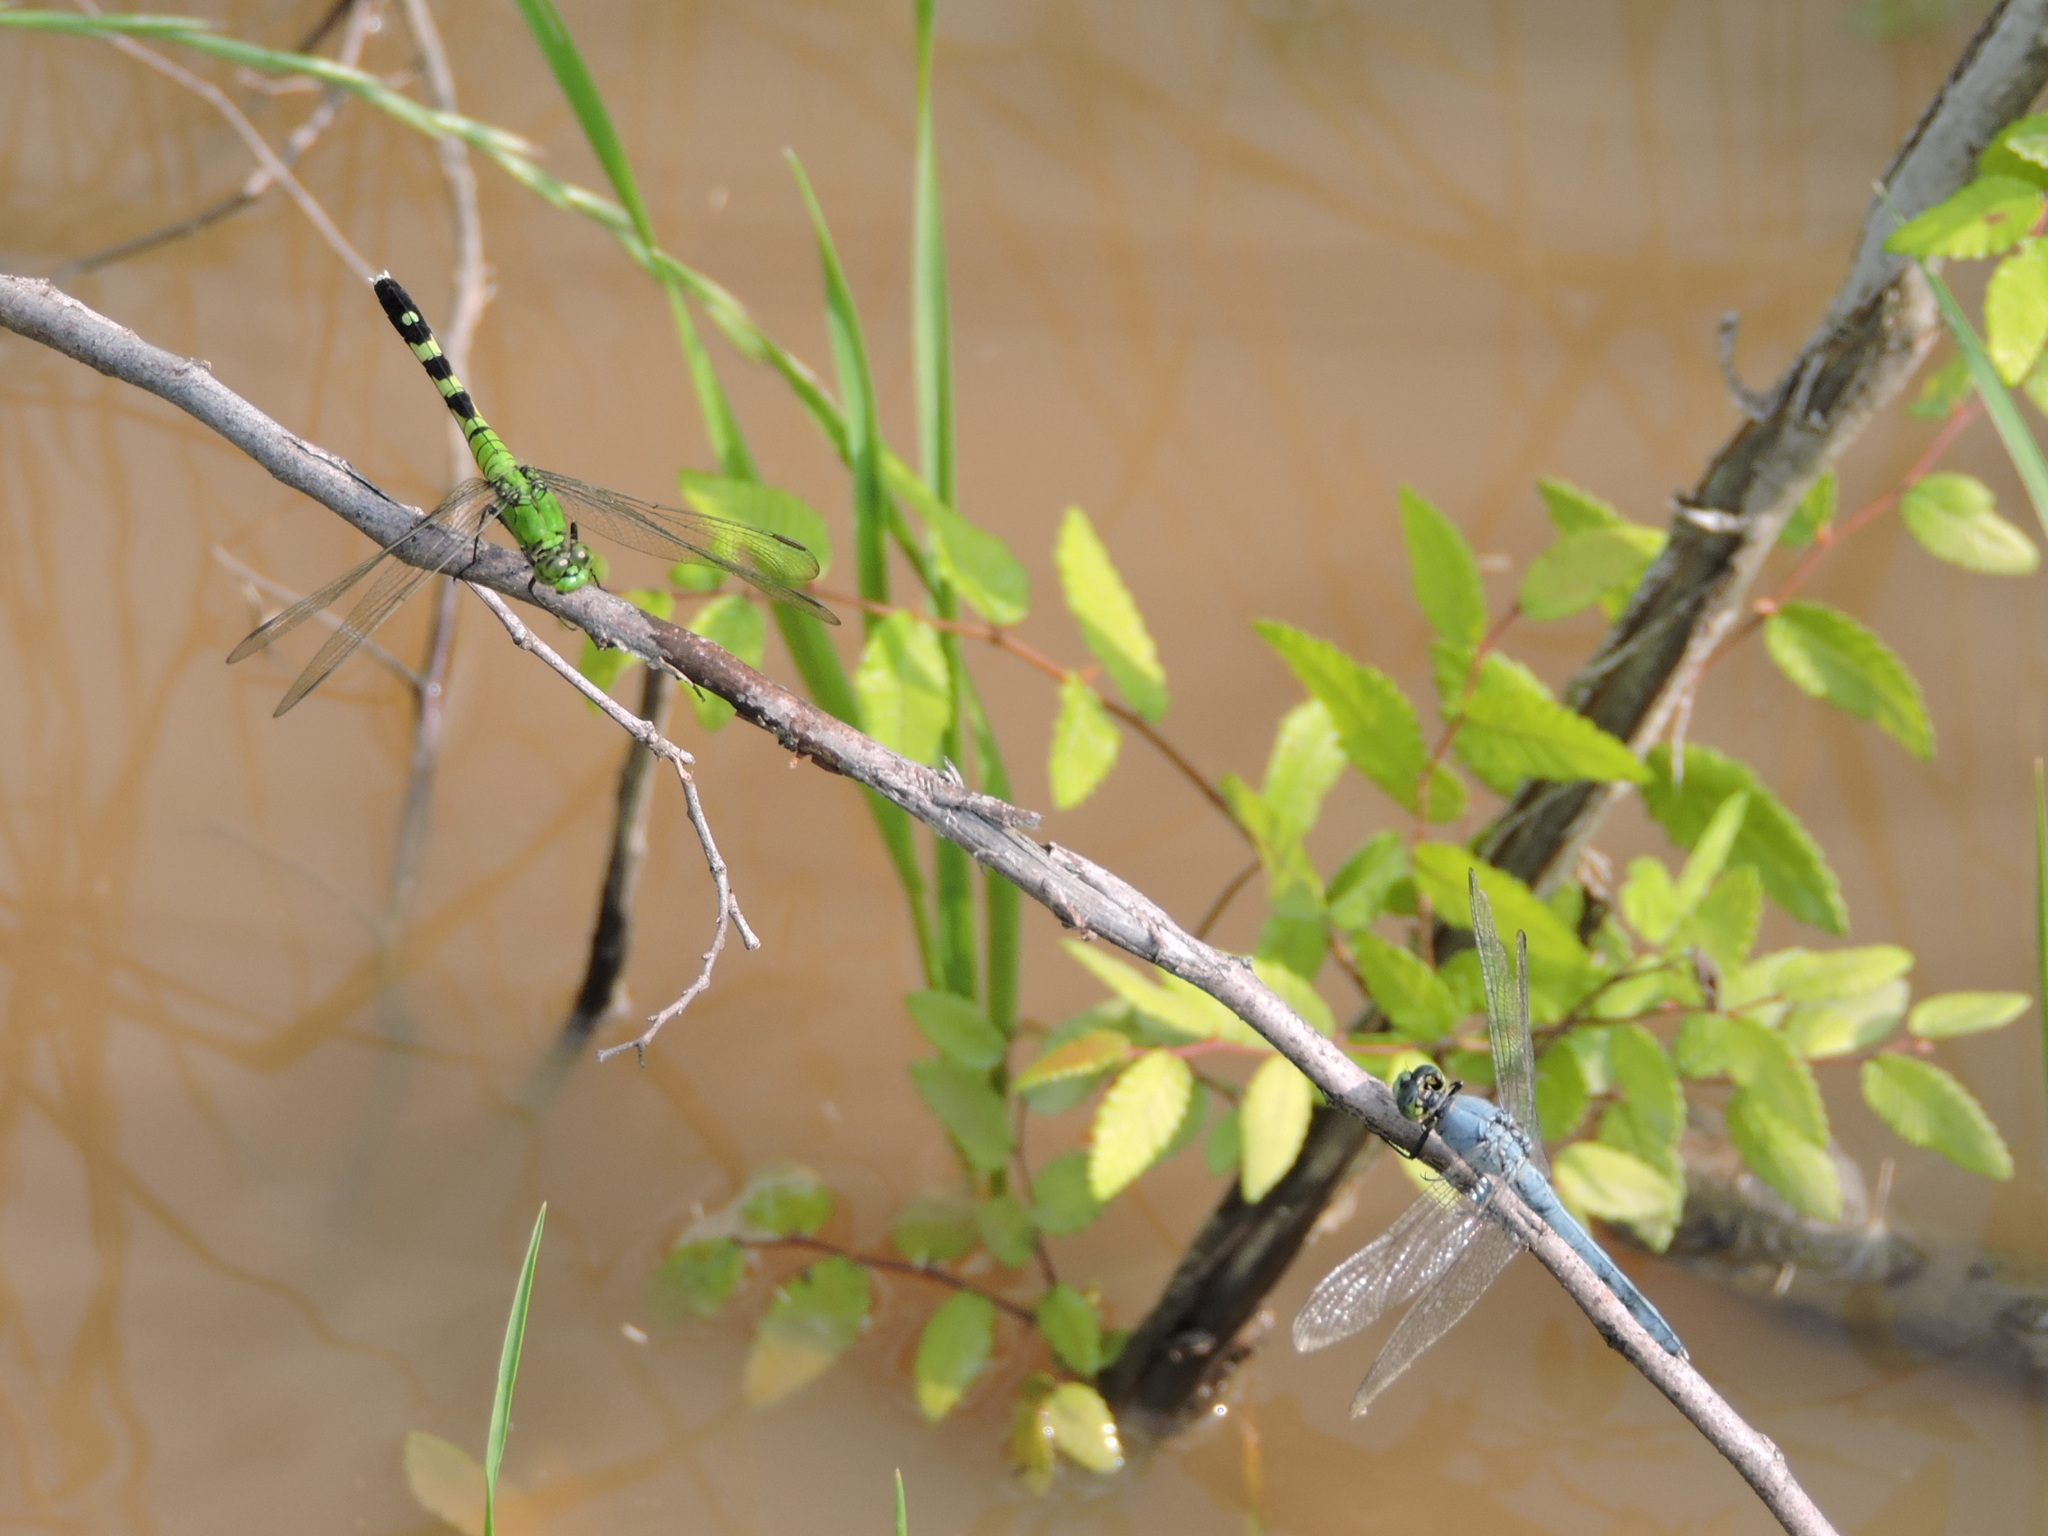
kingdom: Animalia
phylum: Arthropoda
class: Insecta
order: Odonata
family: Libellulidae
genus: Erythemis
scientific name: Erythemis simplicicollis
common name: Eastern pondhawk
